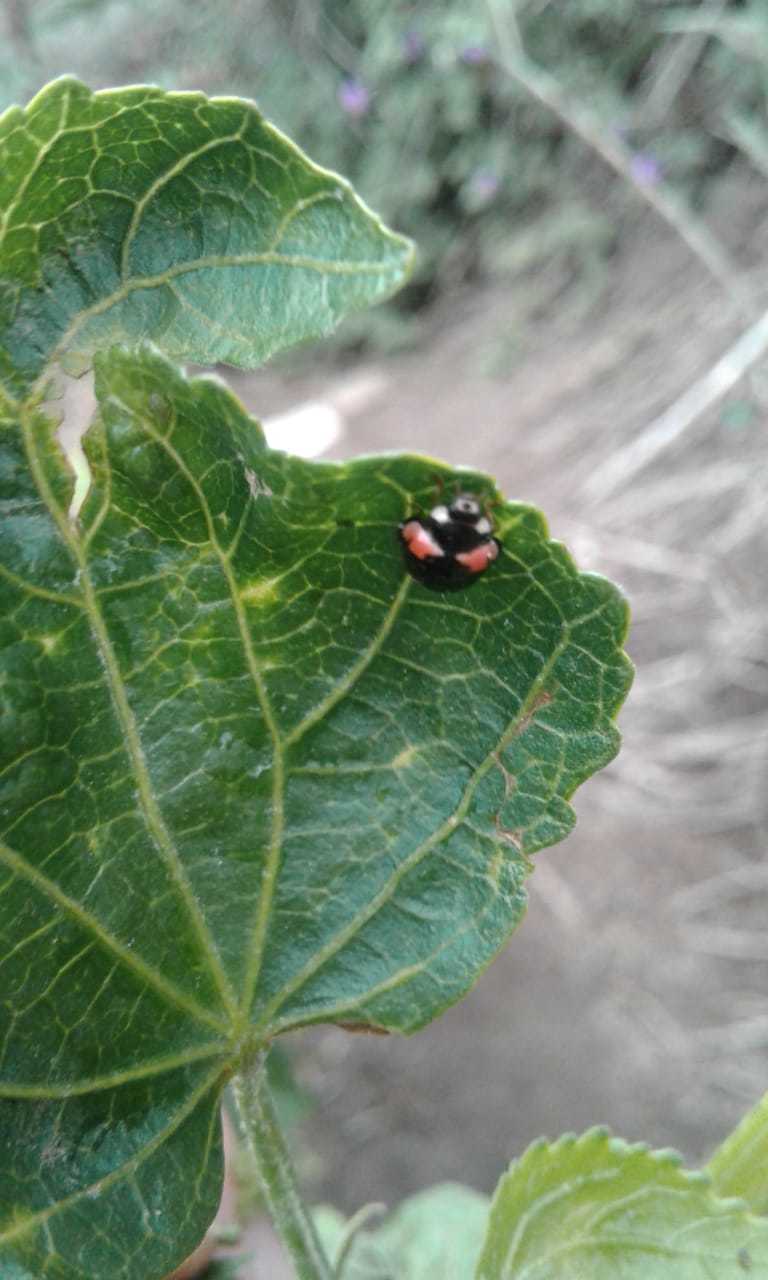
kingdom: Animalia
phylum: Arthropoda
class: Insecta
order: Coleoptera
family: Coccinellidae
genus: Cheilomenes
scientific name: Cheilomenes sexmaculata
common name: Ladybird beetle
